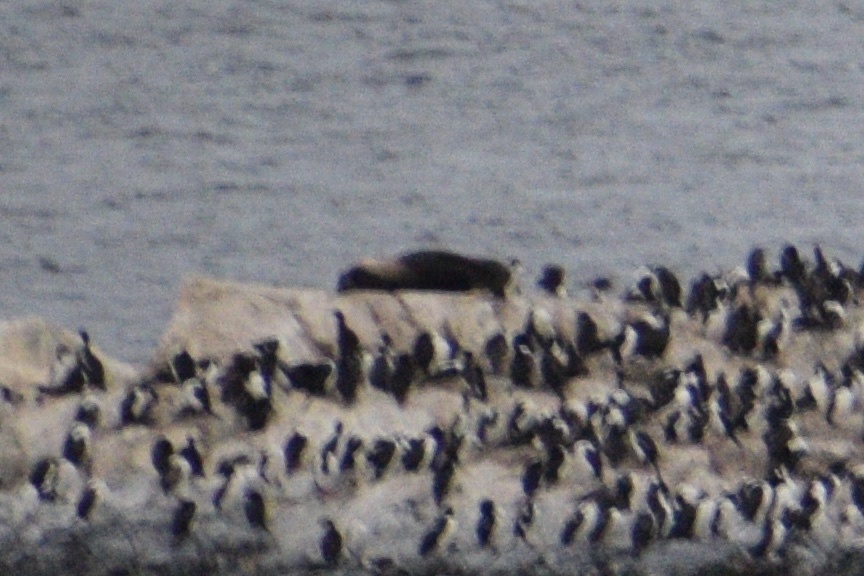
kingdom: Animalia
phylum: Chordata
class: Mammalia
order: Carnivora
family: Otariidae
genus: Otaria
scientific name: Otaria byronia
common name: South american sea lion
